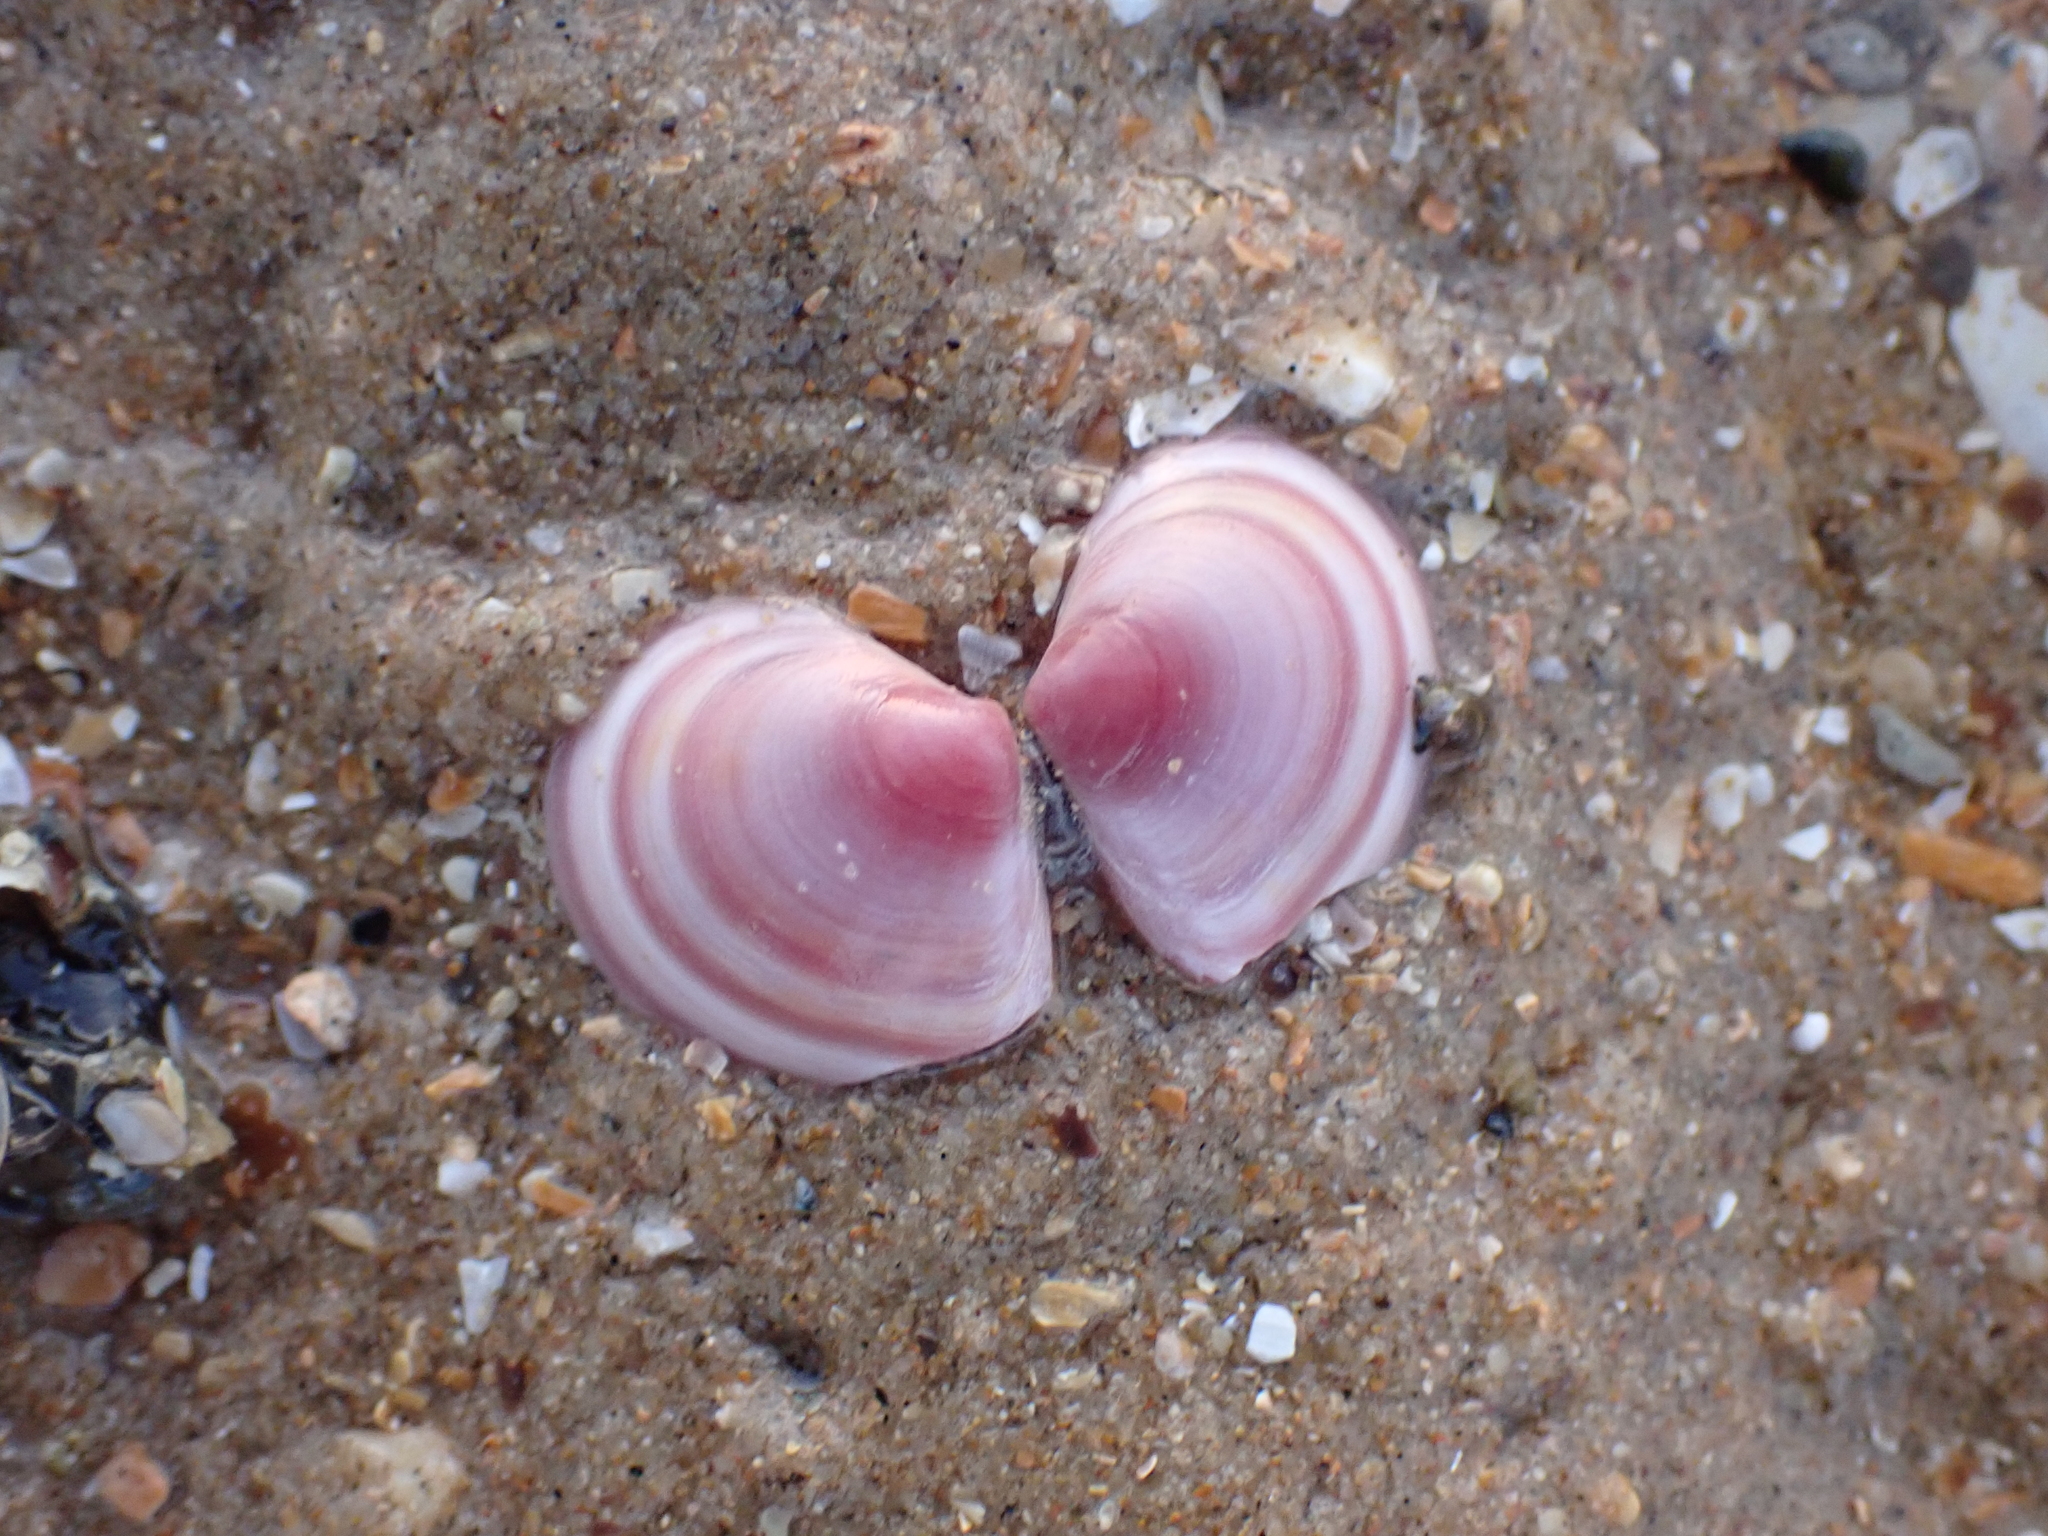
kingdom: Animalia
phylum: Mollusca
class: Bivalvia
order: Cardiida
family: Tellinidae
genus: Macoma
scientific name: Macoma balthica
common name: Baltic tellin
